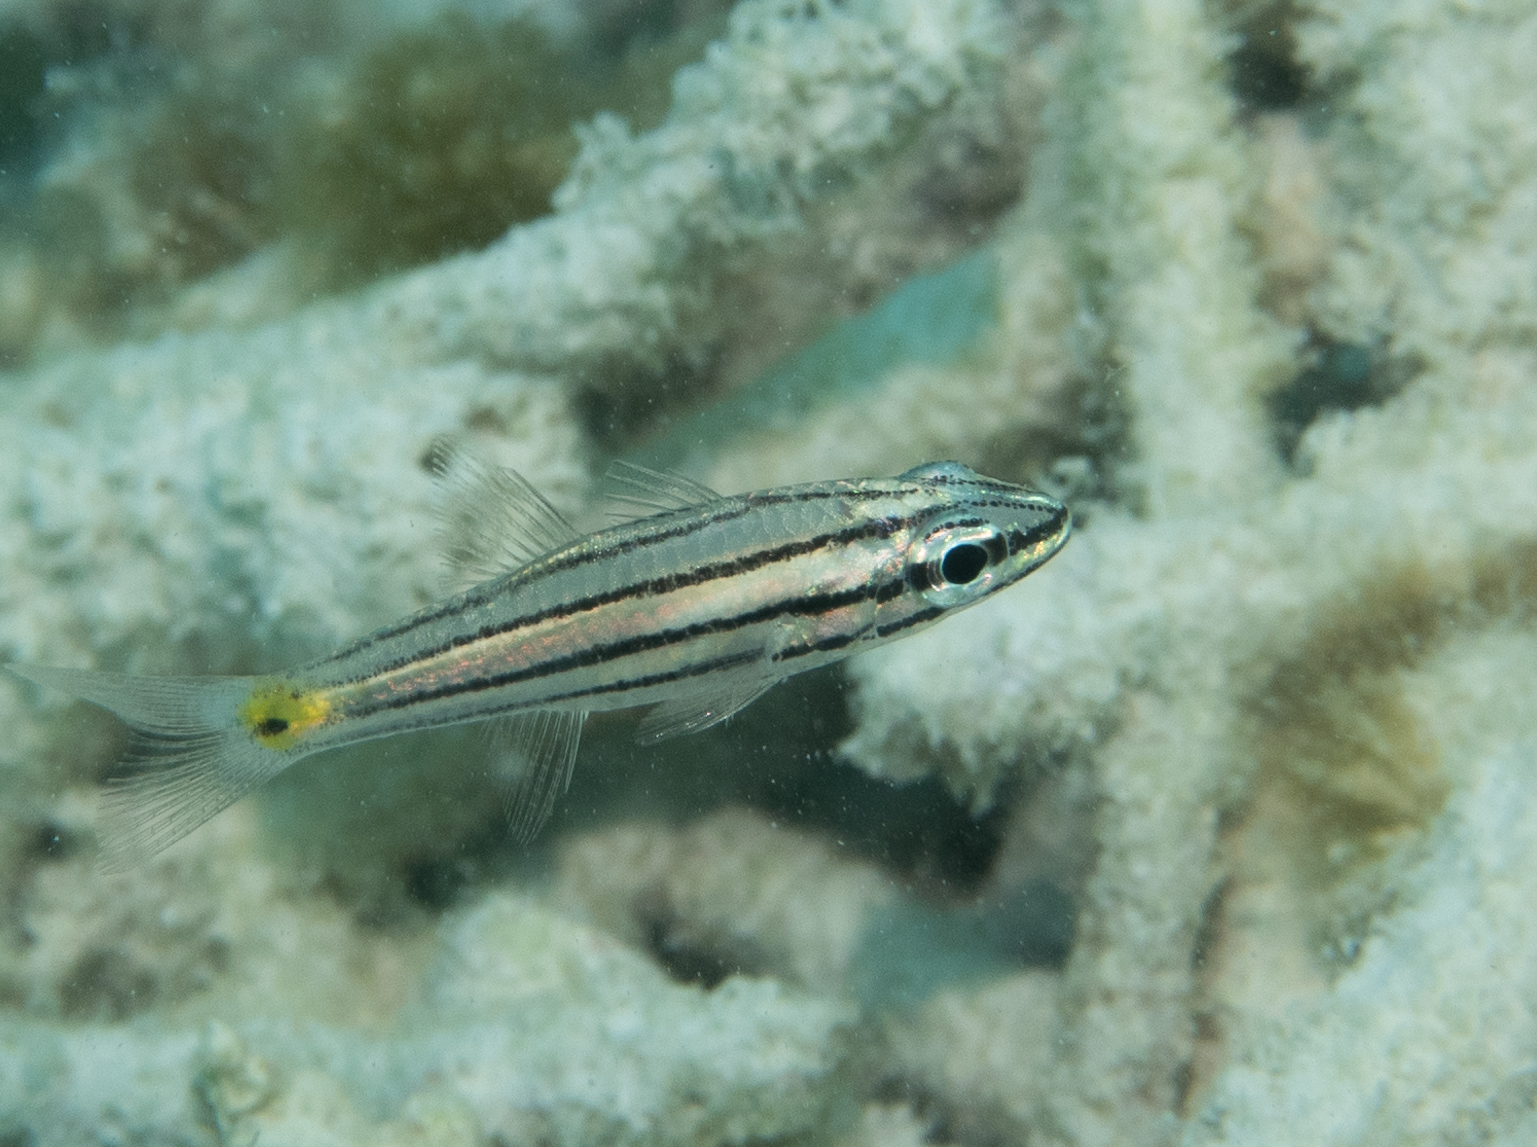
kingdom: Animalia
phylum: Chordata
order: Perciformes
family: Apogonidae
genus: Cheilodipterus
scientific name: Cheilodipterus isostigmus
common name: Dog-toothed cardinalfish
